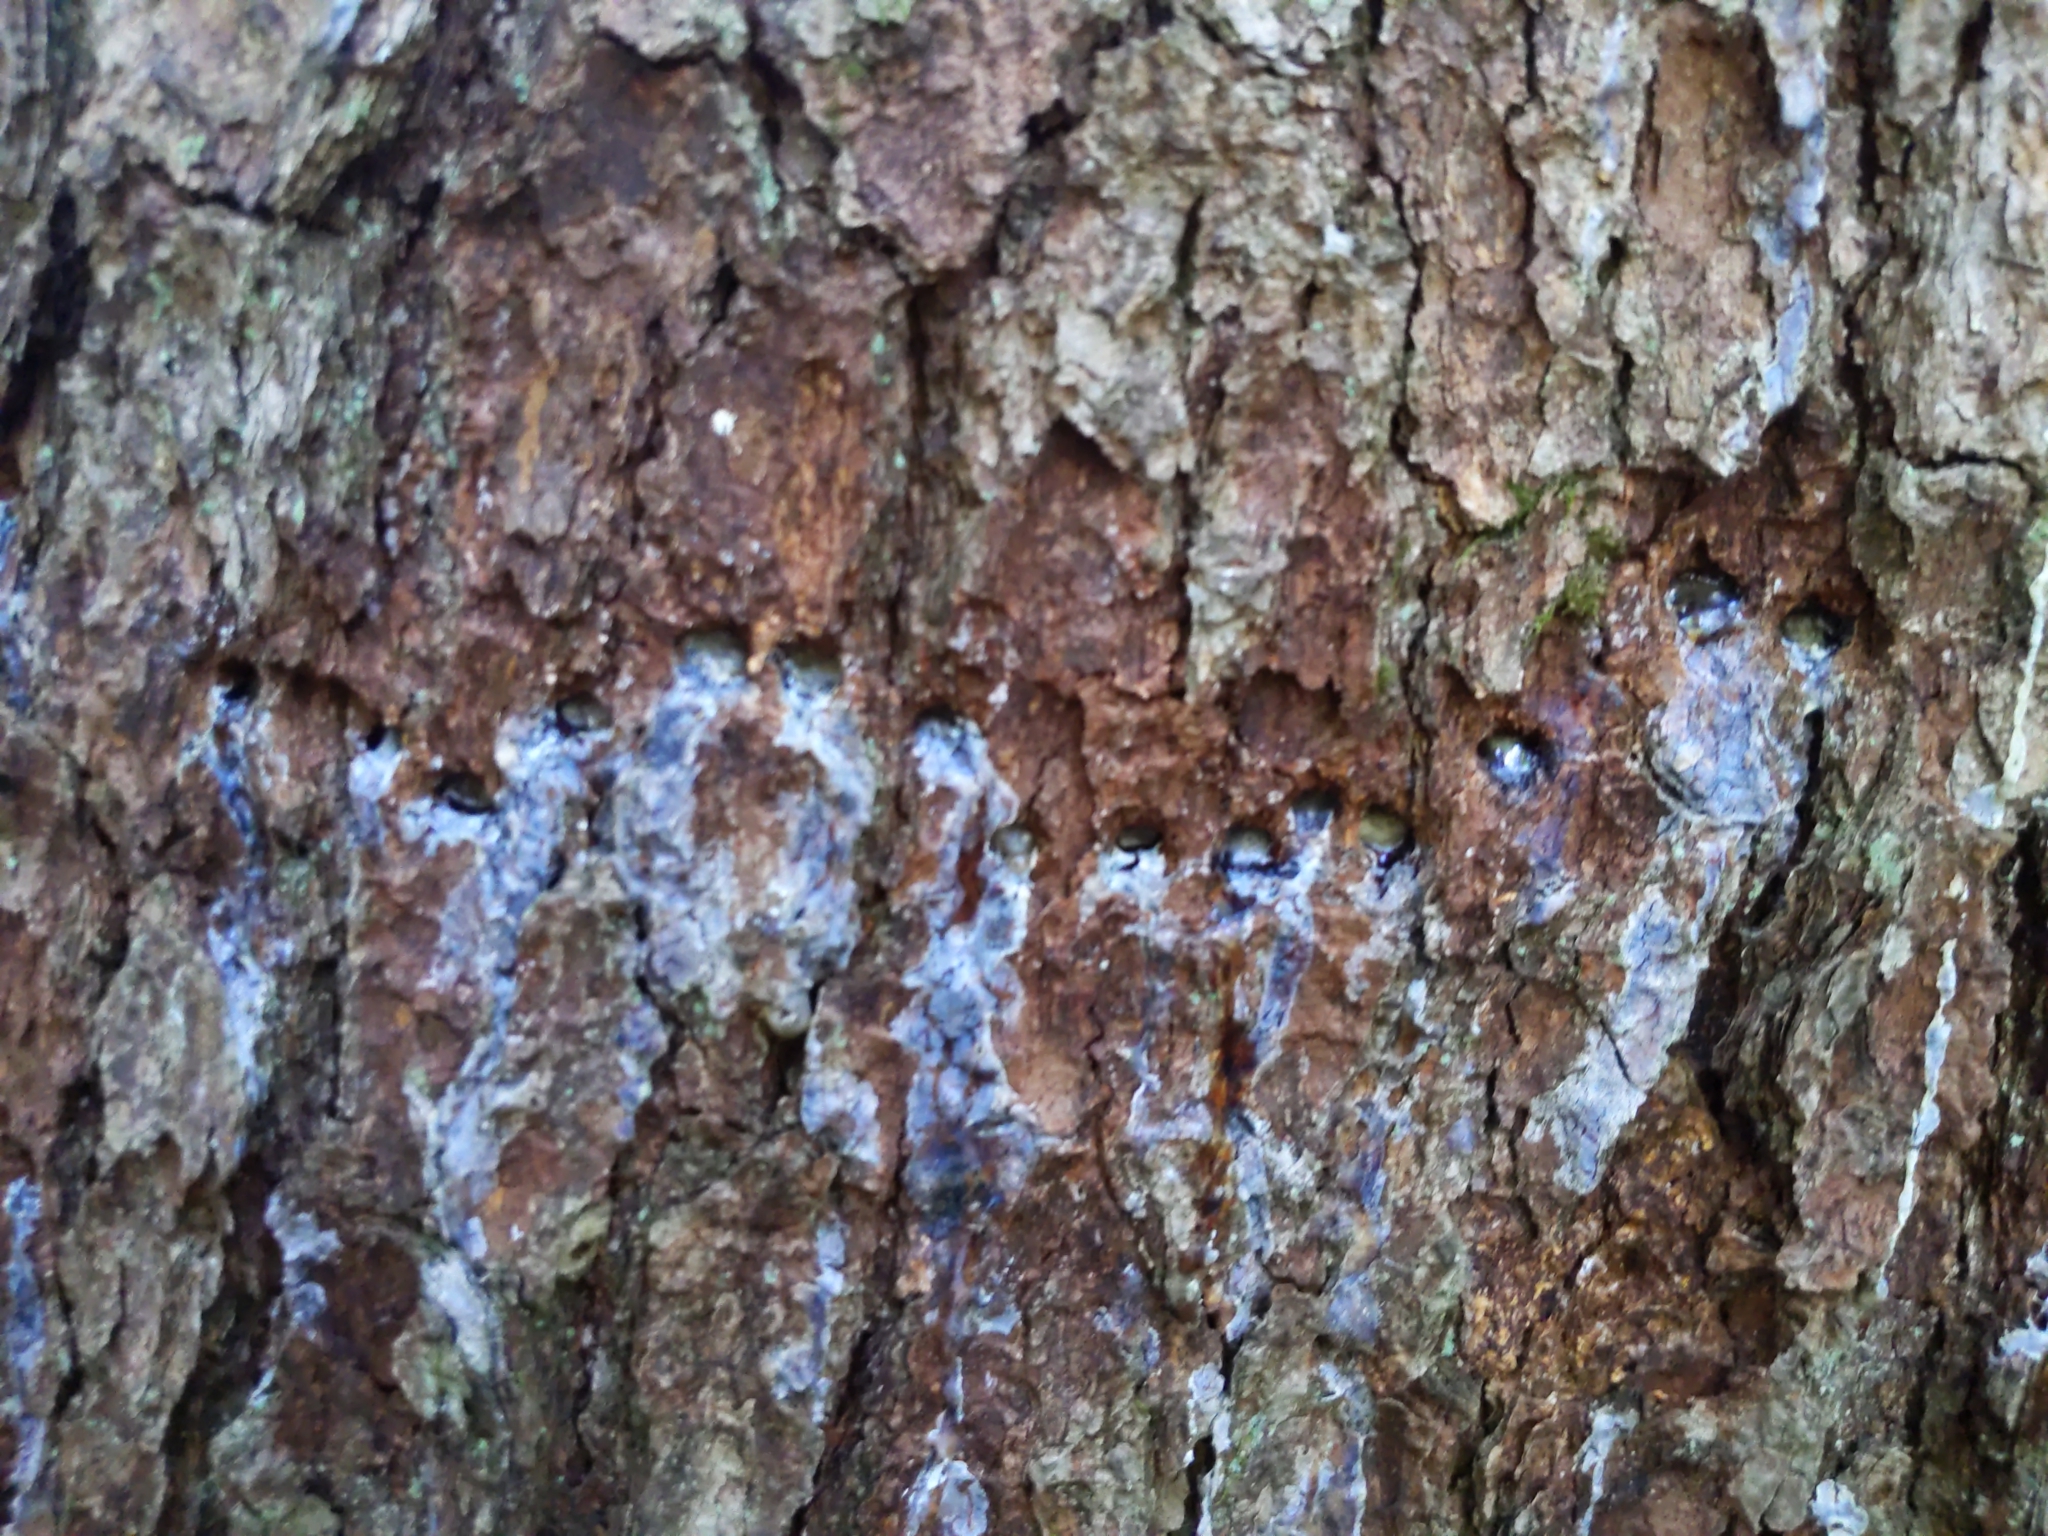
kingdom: Animalia
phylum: Chordata
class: Aves
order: Piciformes
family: Picidae
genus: Sphyrapicus
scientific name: Sphyrapicus varius
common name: Yellow-bellied sapsucker
